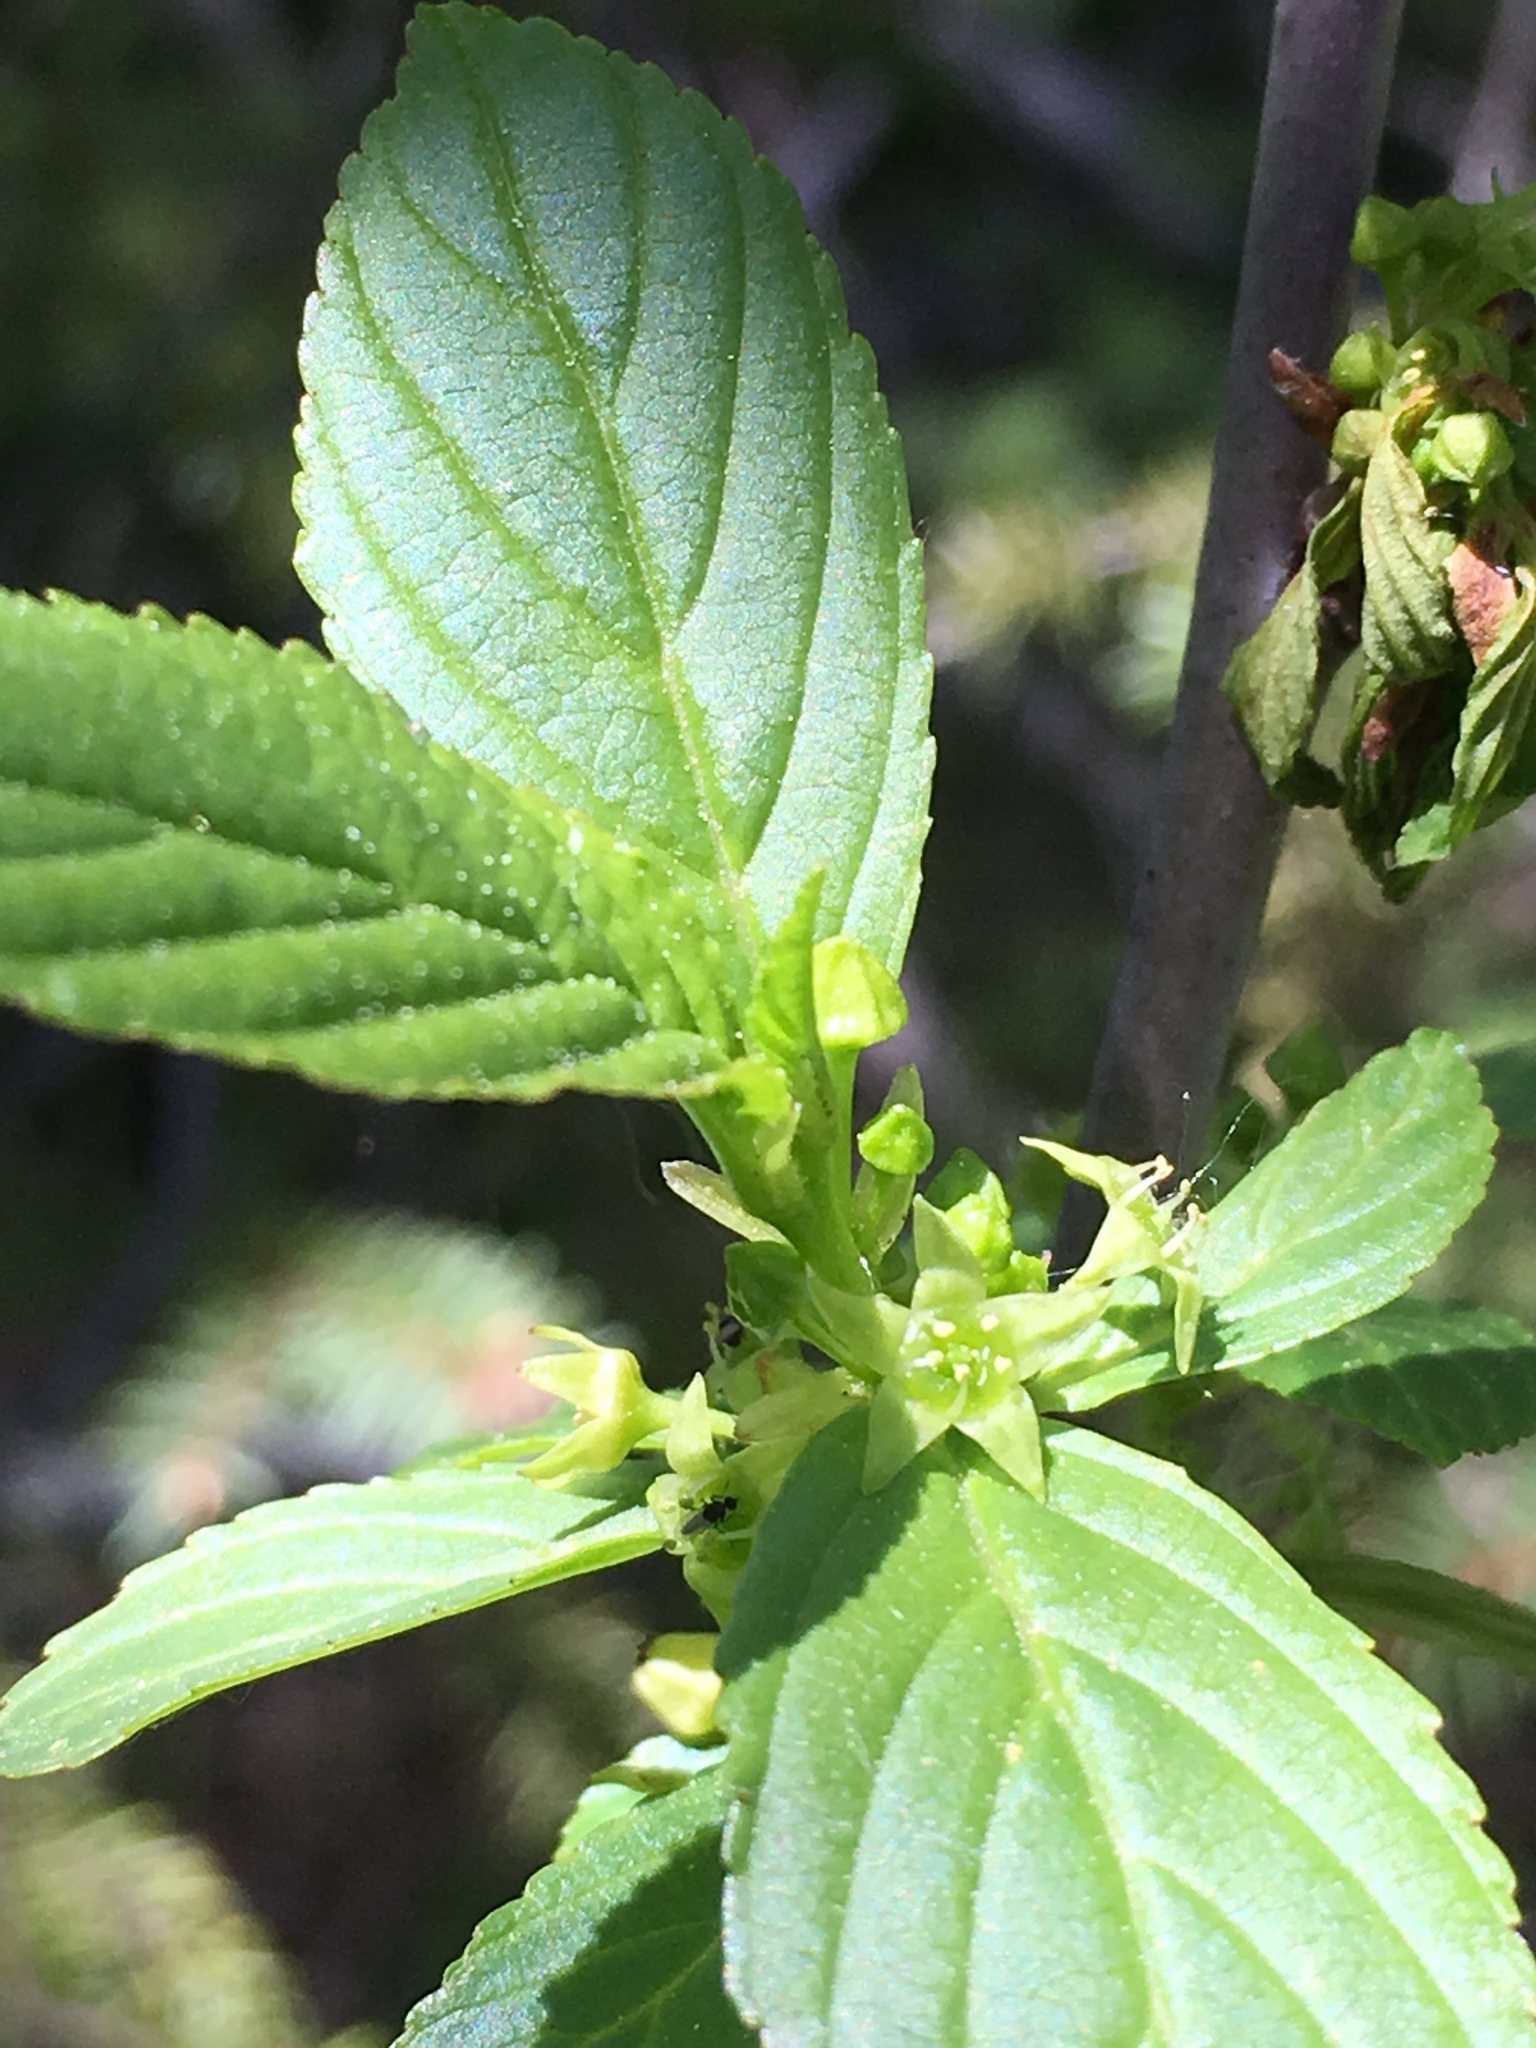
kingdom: Plantae
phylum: Tracheophyta
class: Magnoliopsida
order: Rosales
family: Rhamnaceae
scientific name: Rhamnaceae
